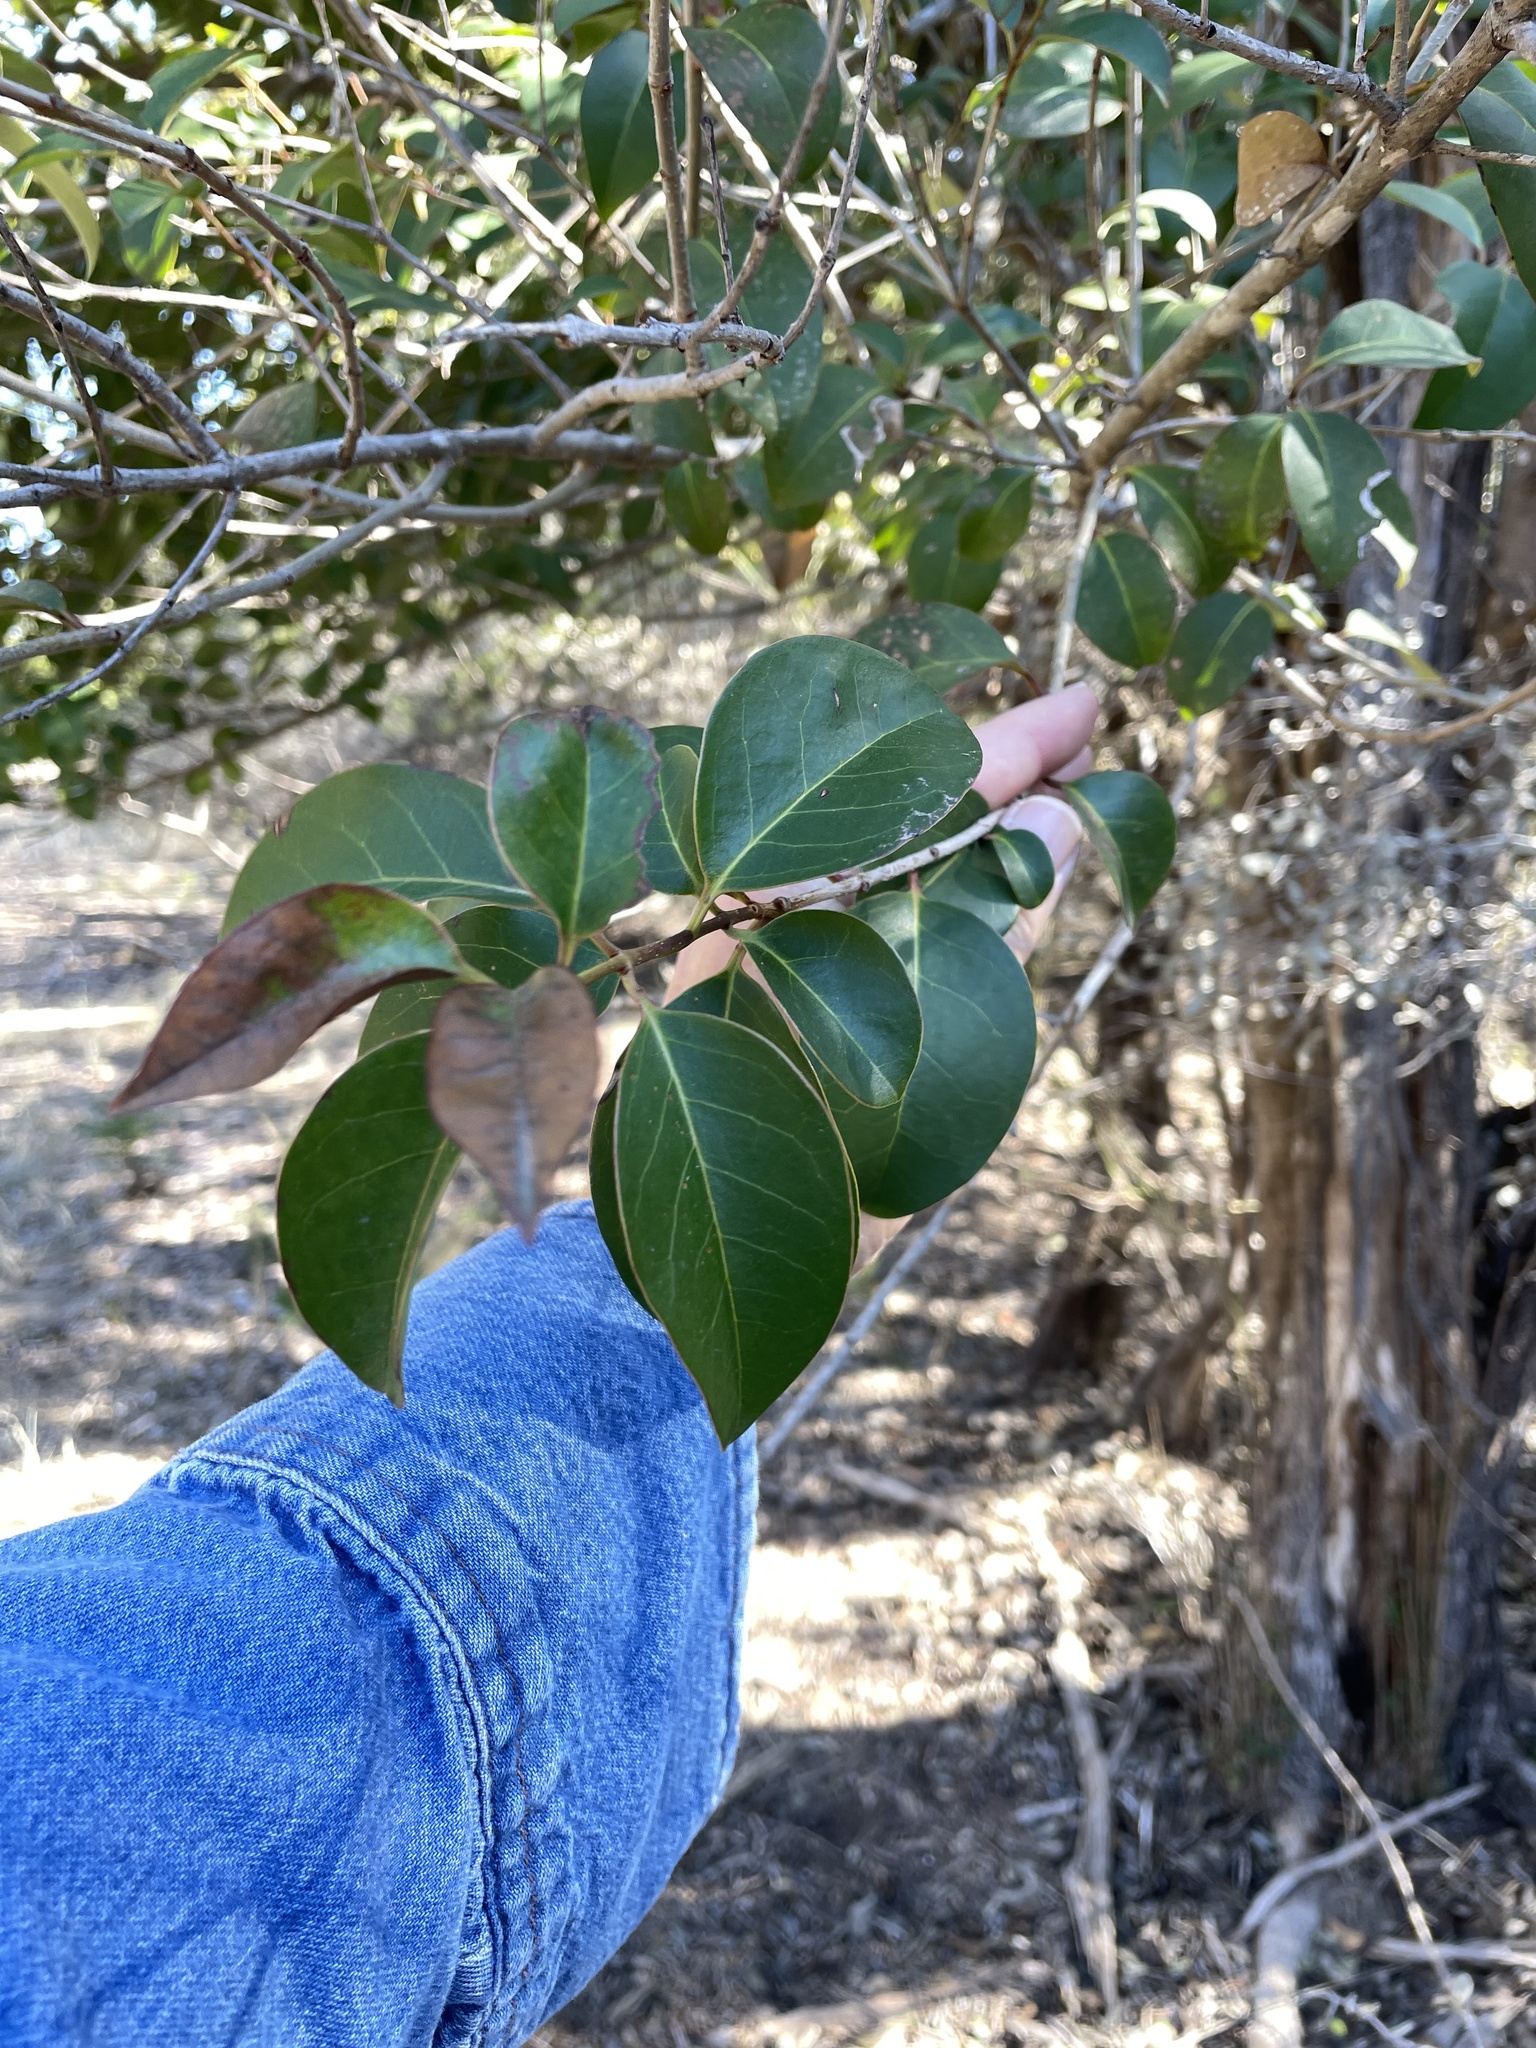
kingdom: Plantae
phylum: Tracheophyta
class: Magnoliopsida
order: Lamiales
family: Oleaceae
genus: Ligustrum
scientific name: Ligustrum lucidum
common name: Glossy privet
